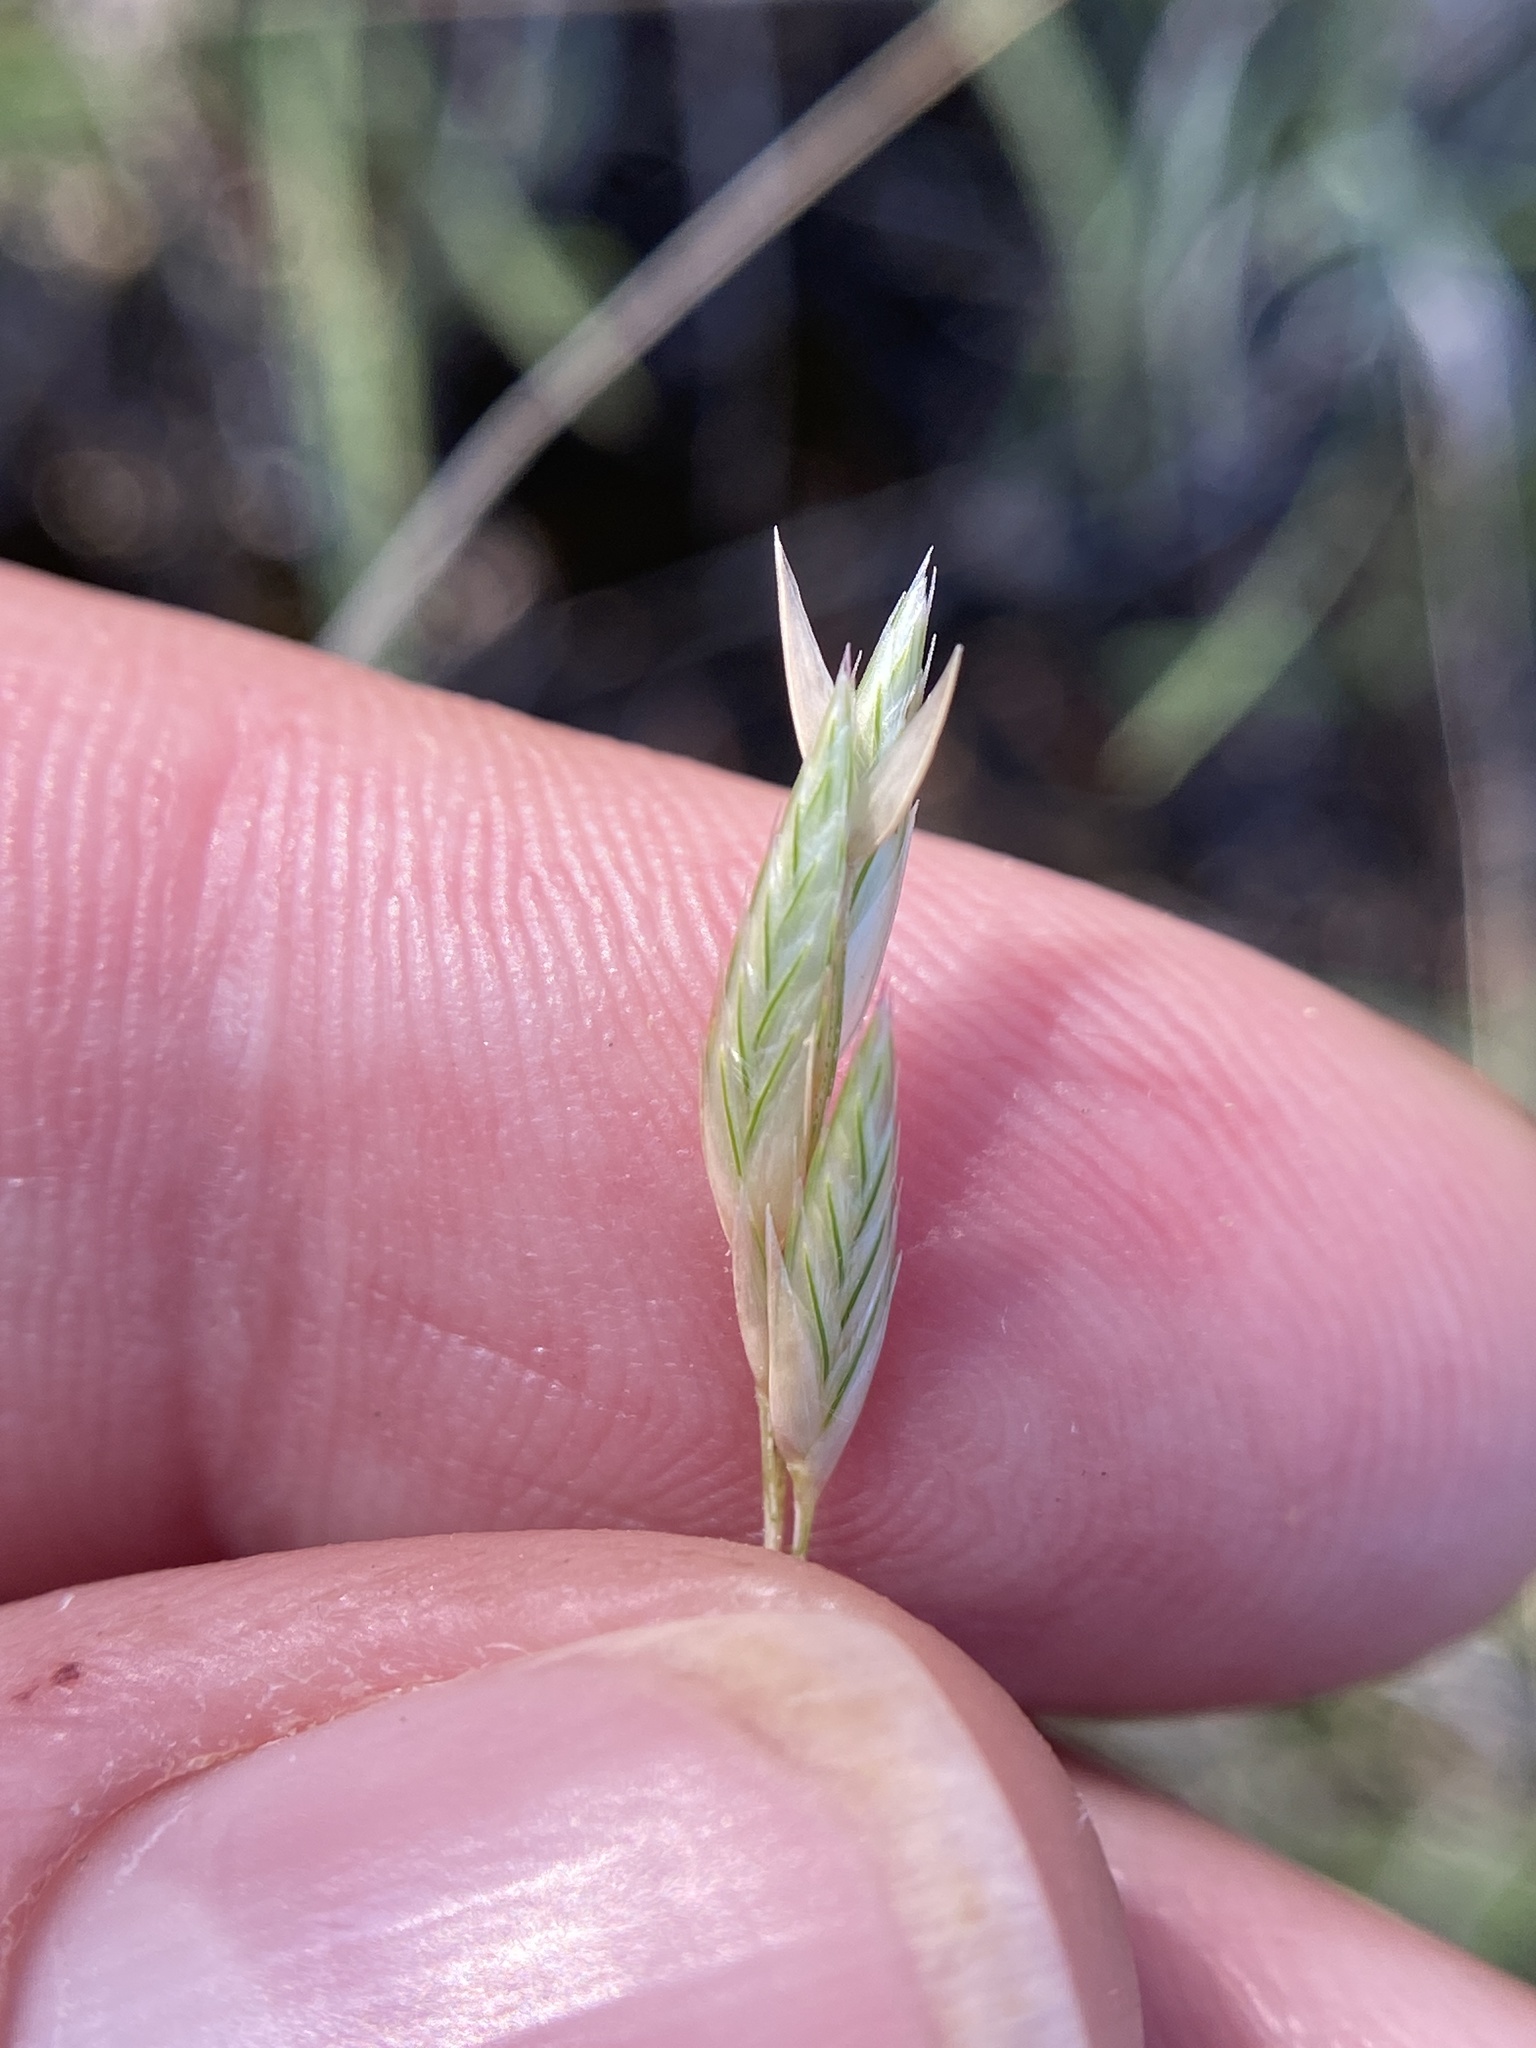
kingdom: Plantae
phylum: Tracheophyta
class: Liliopsida
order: Poales
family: Poaceae
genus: Erioneuron
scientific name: Erioneuron pilosum
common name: Hairy woolly grass
